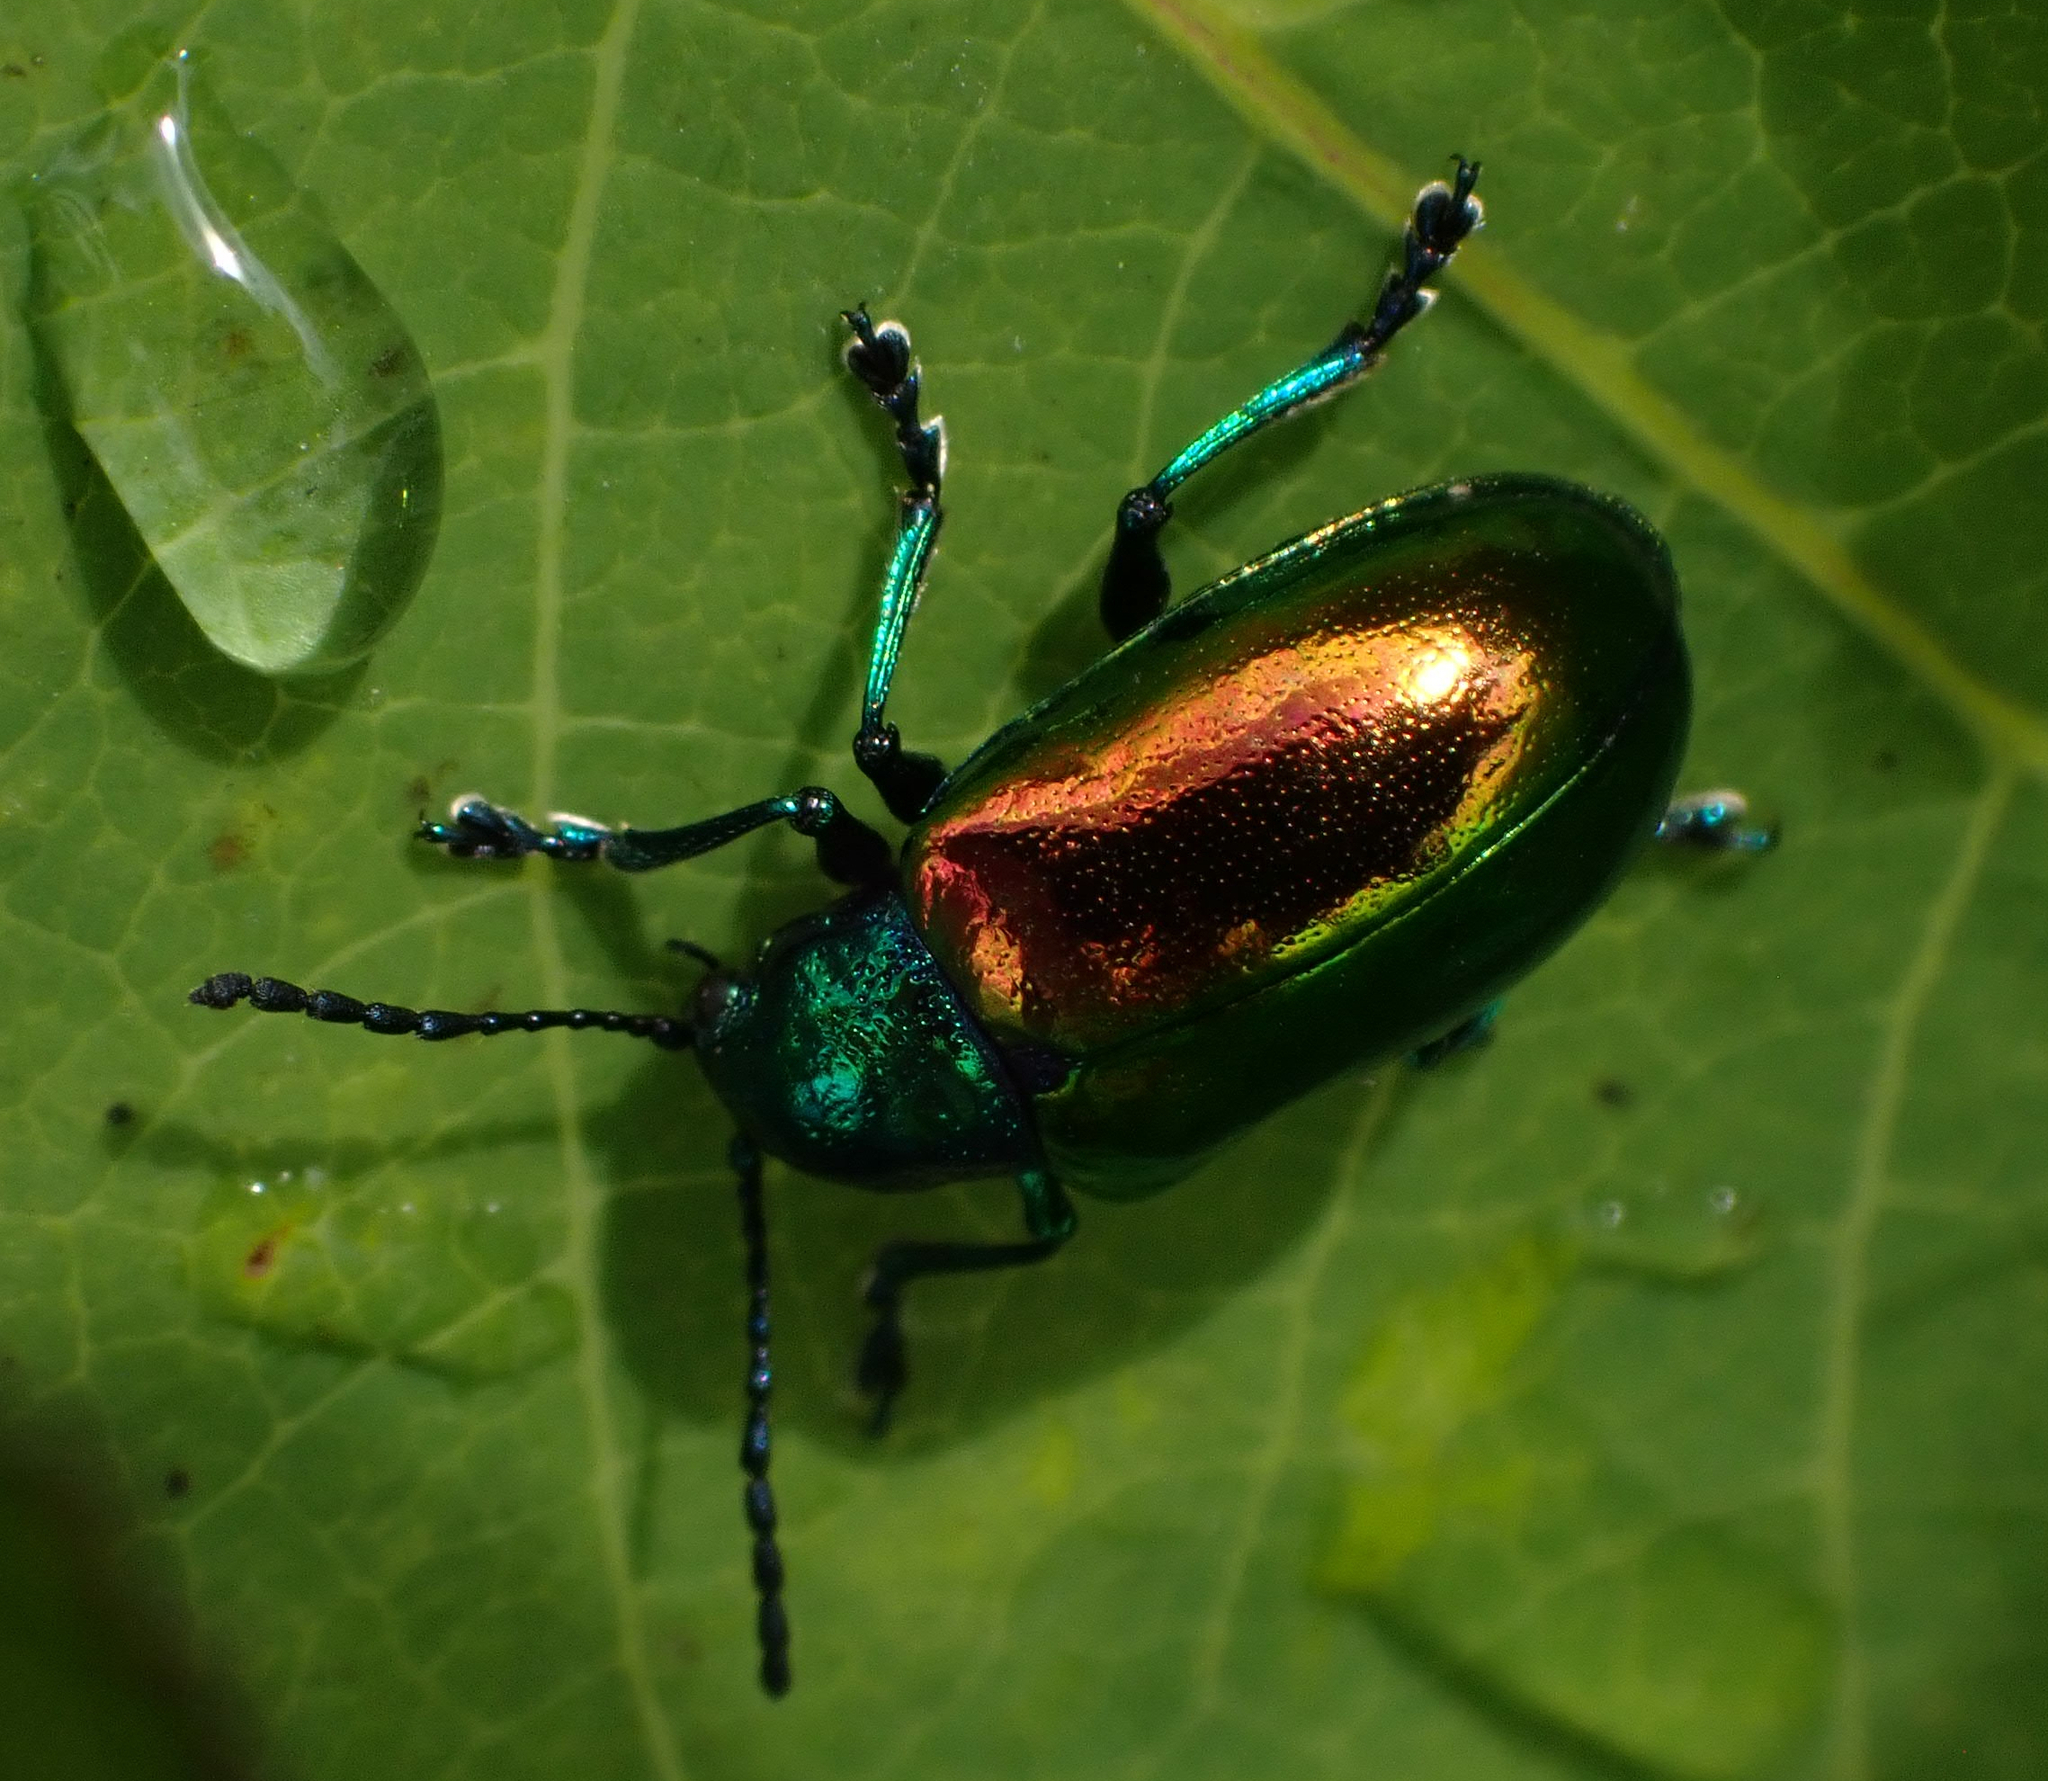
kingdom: Animalia
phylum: Arthropoda
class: Insecta
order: Coleoptera
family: Chrysomelidae
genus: Chrysochus
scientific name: Chrysochus auratus
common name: Dogbane leaf beetle
